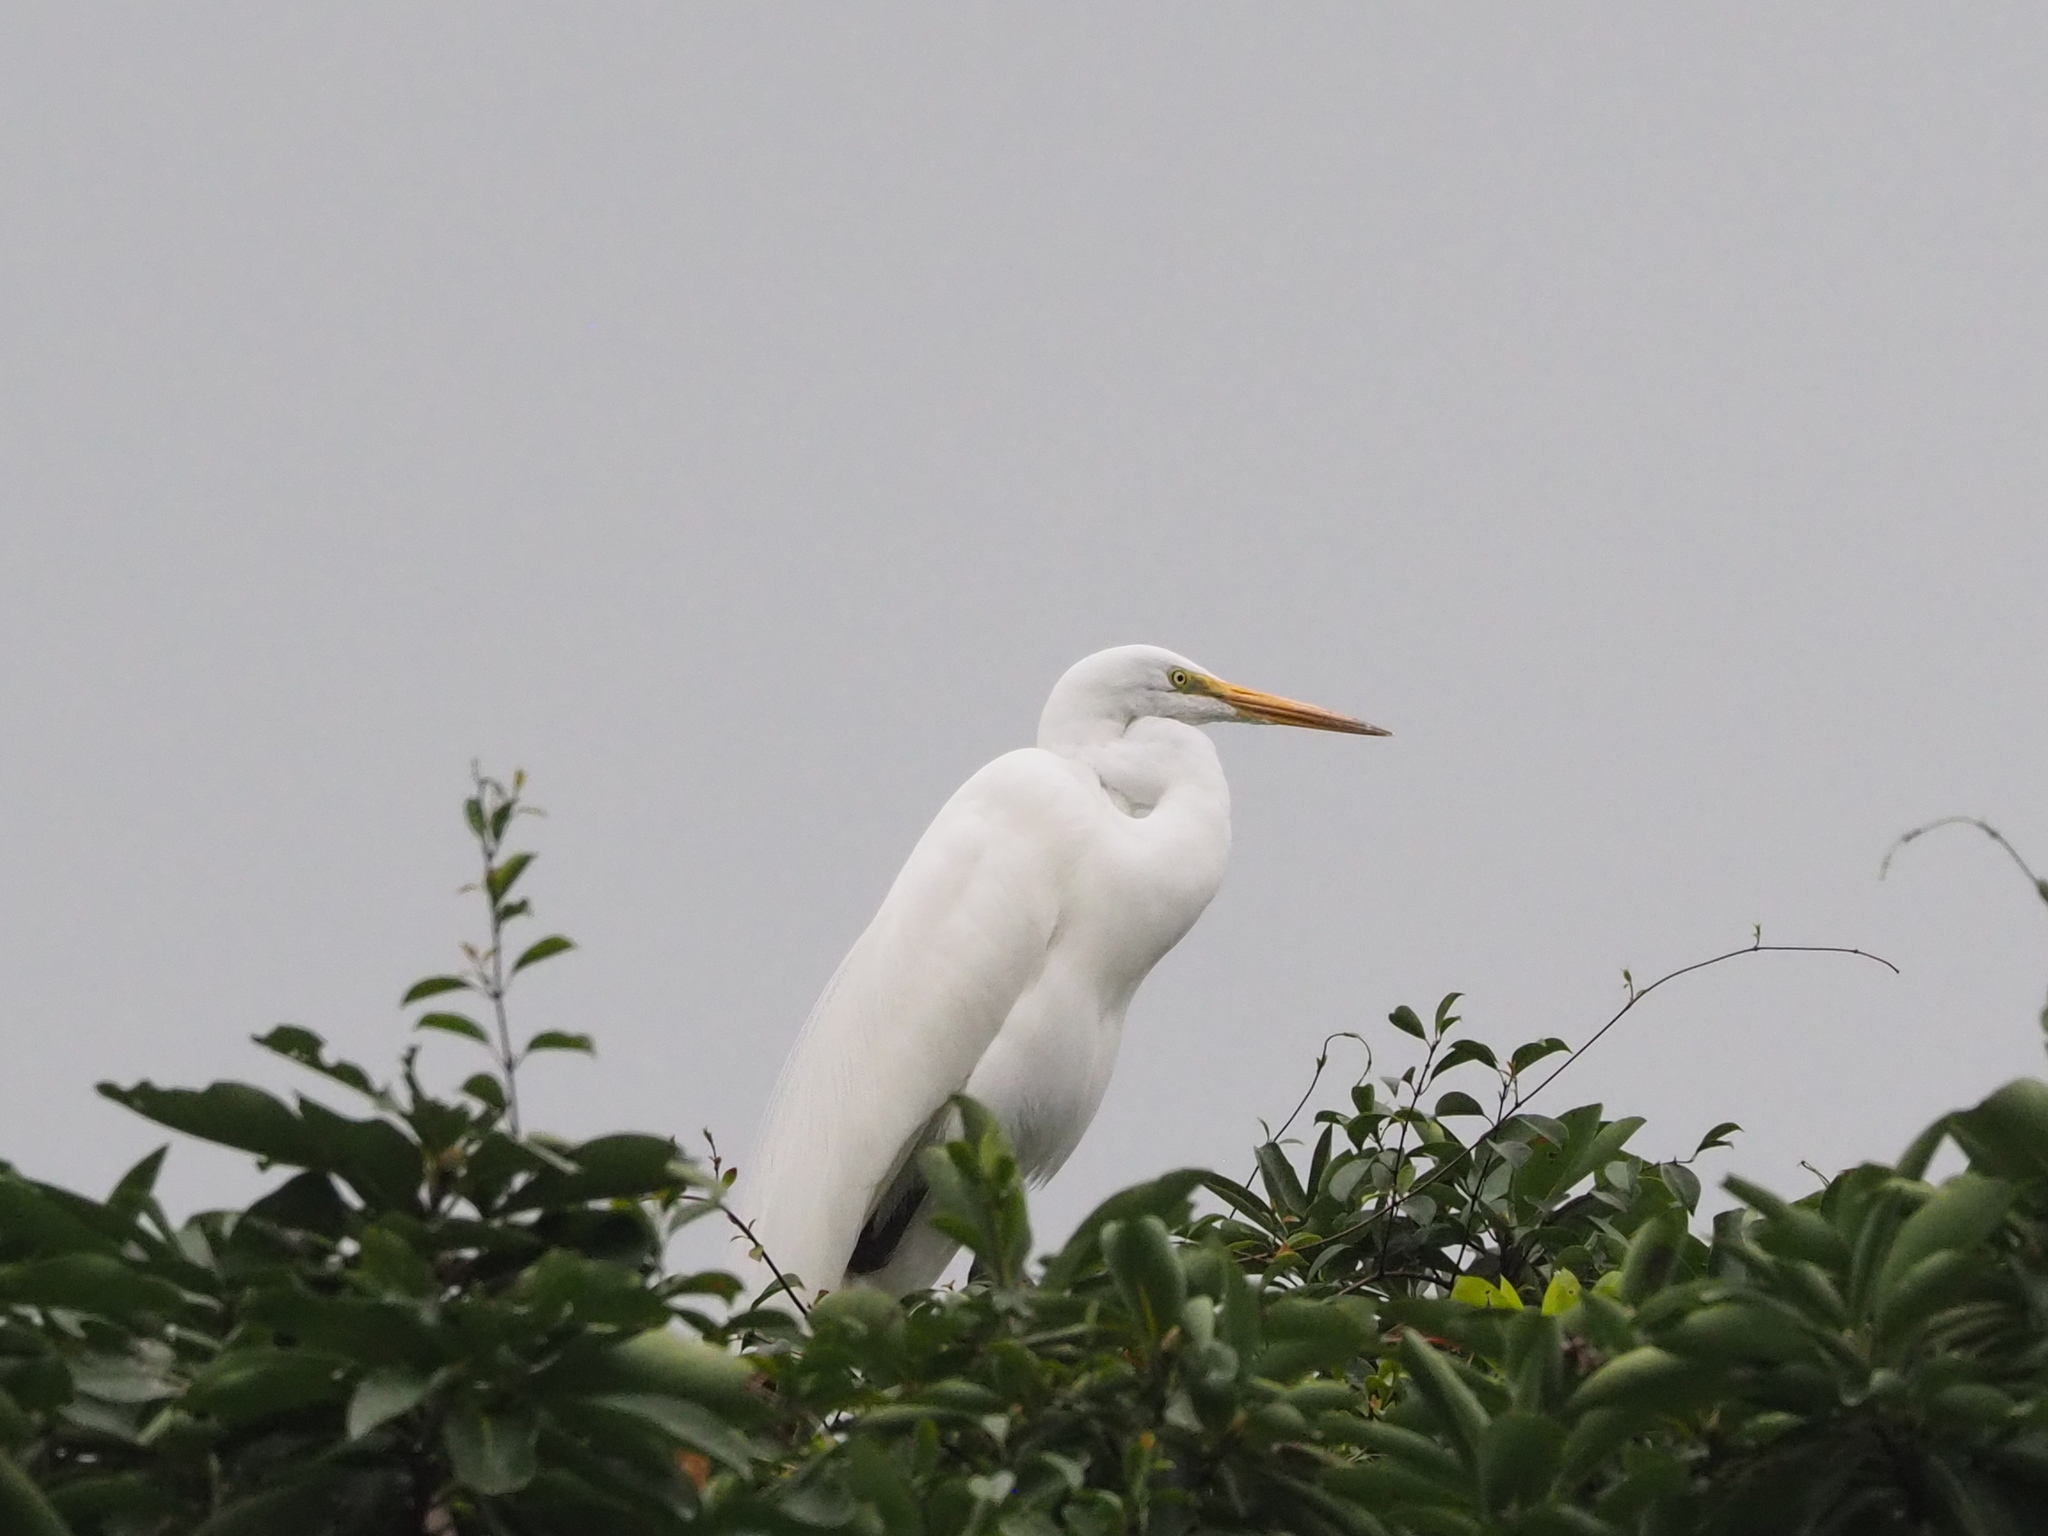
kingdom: Animalia
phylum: Chordata
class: Aves
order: Pelecaniformes
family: Ardeidae
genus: Ardea
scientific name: Ardea modesta
